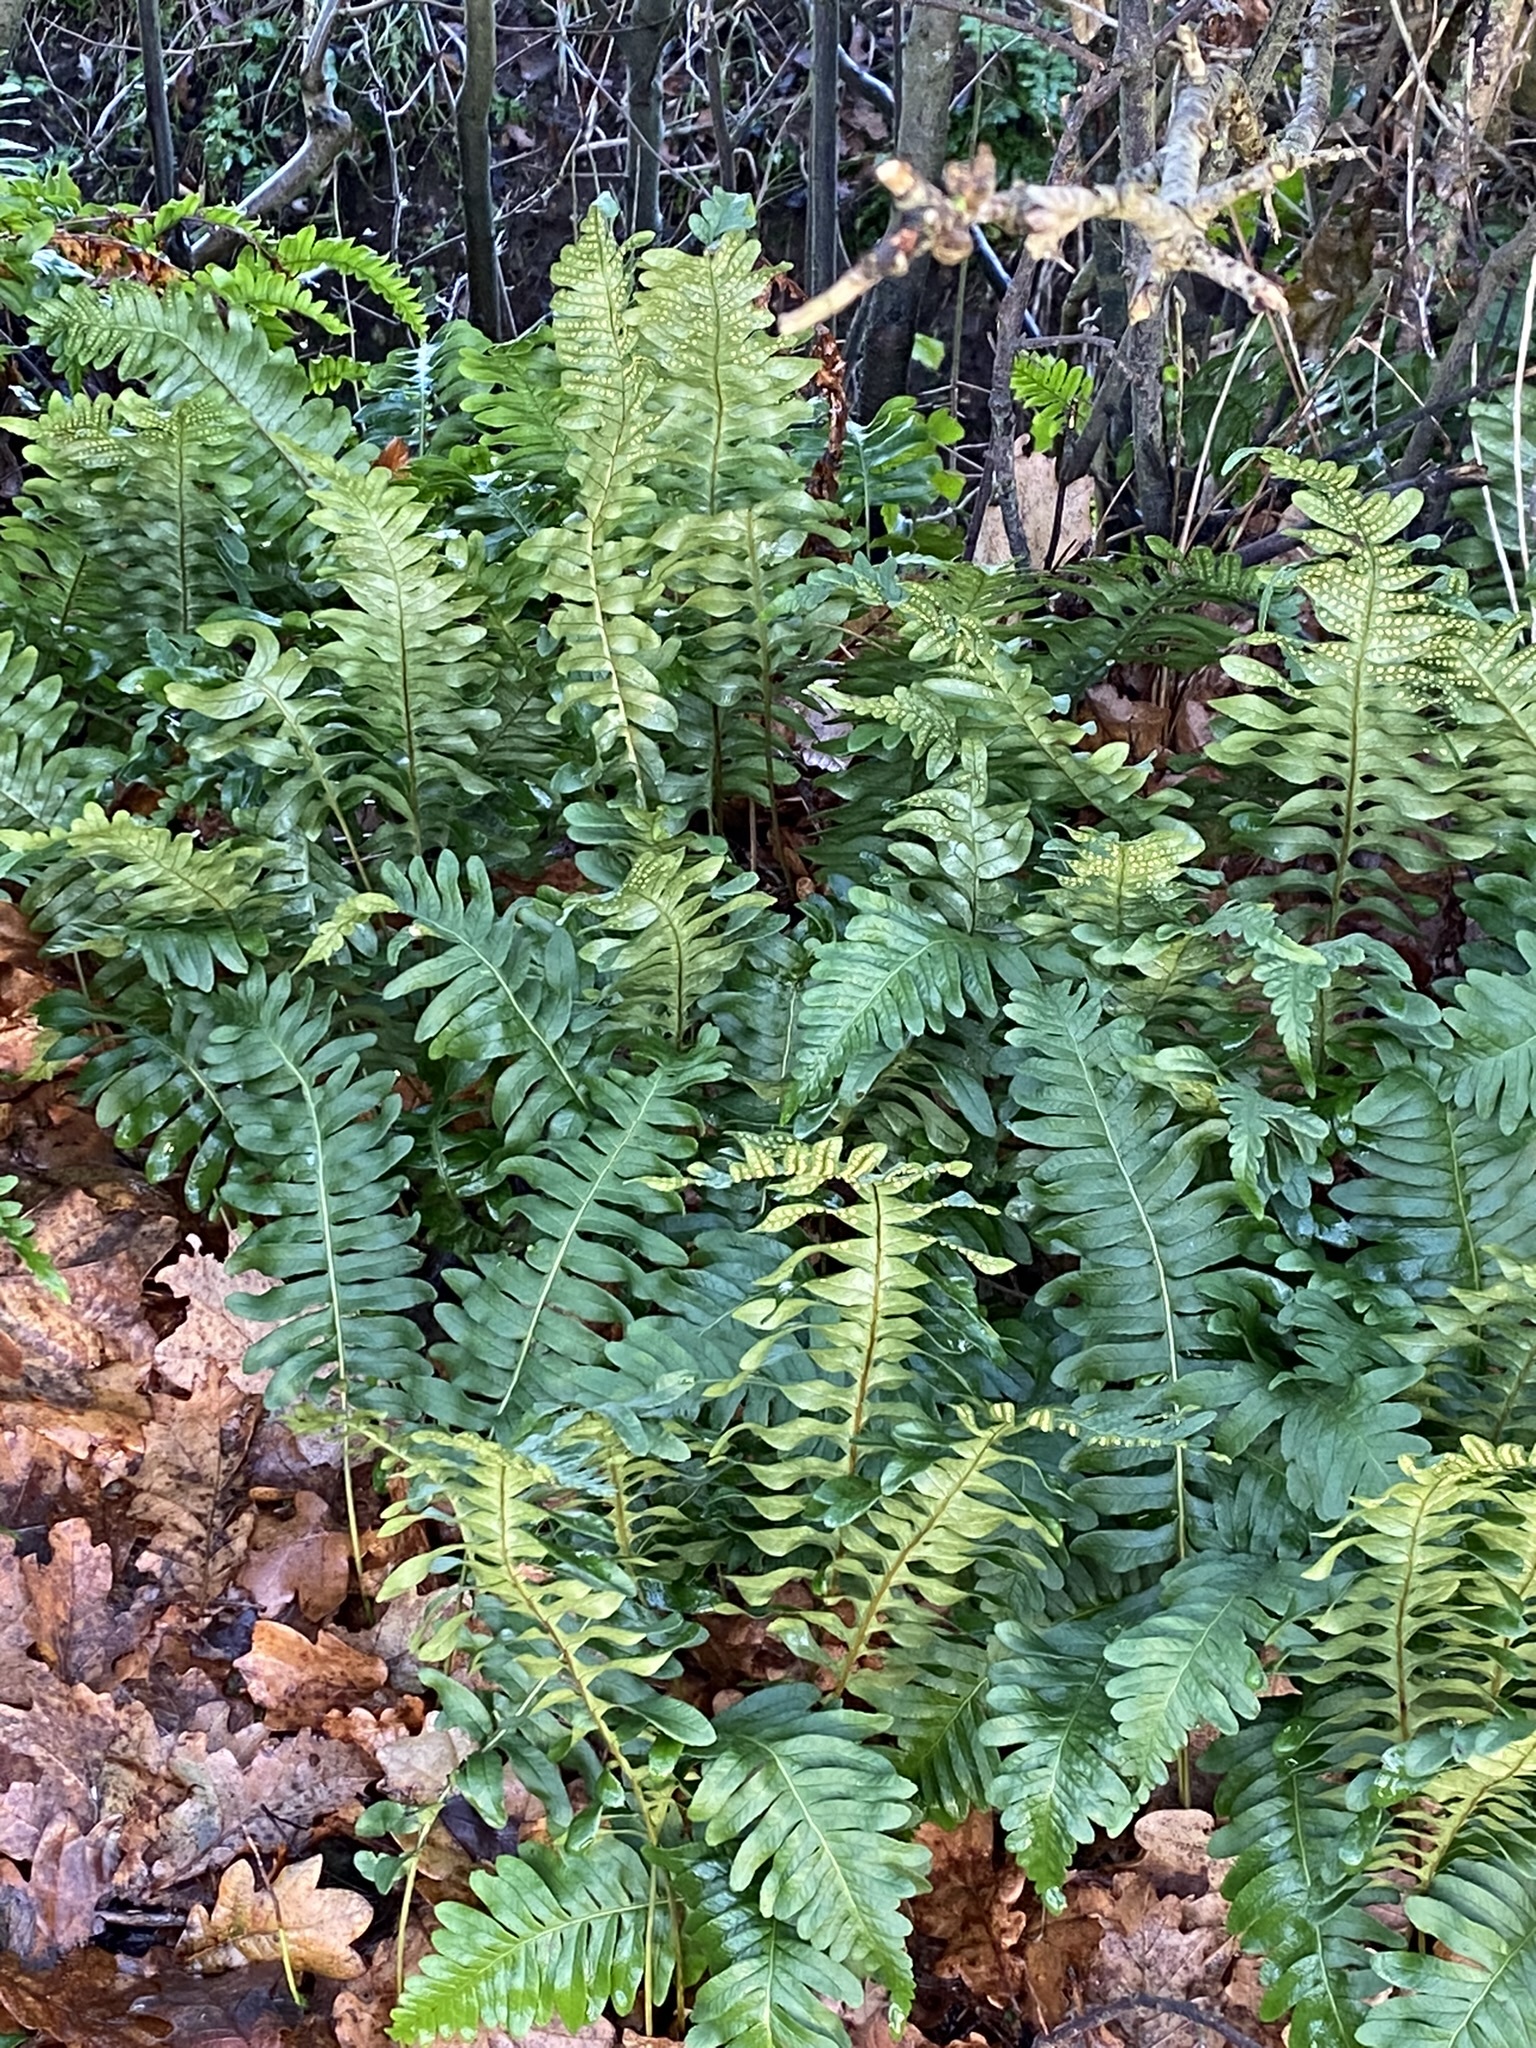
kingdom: Plantae
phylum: Tracheophyta
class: Polypodiopsida
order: Polypodiales
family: Polypodiaceae
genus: Polypodium
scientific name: Polypodium
